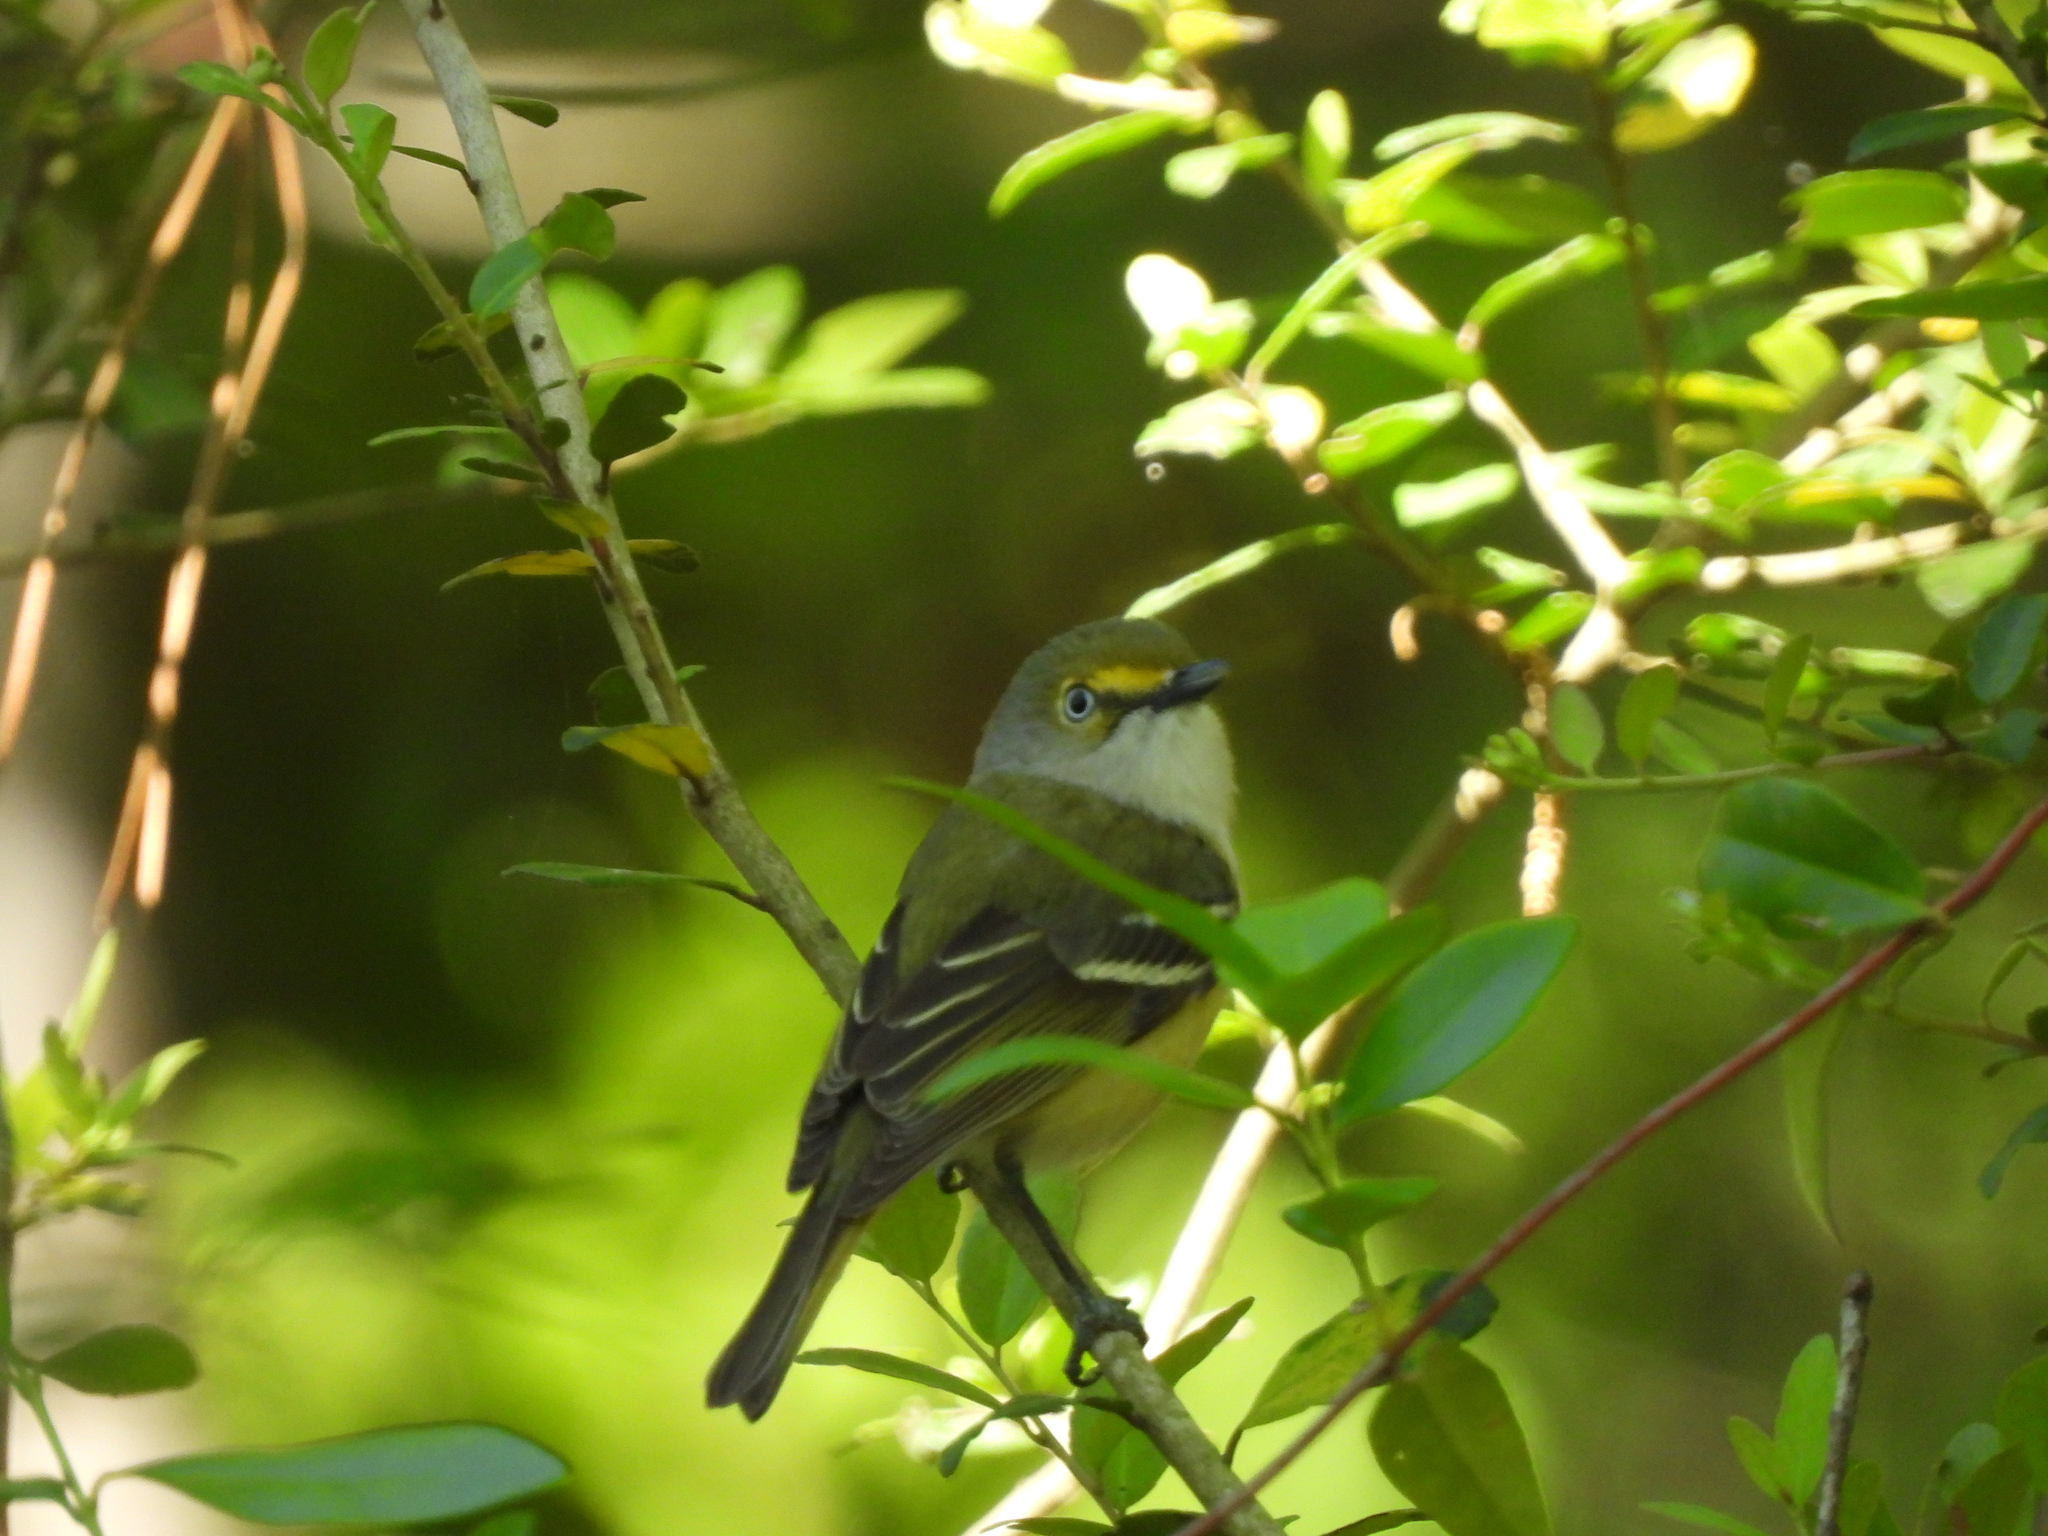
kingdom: Animalia
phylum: Chordata
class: Aves
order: Passeriformes
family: Vireonidae
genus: Vireo
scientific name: Vireo griseus
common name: White-eyed vireo
